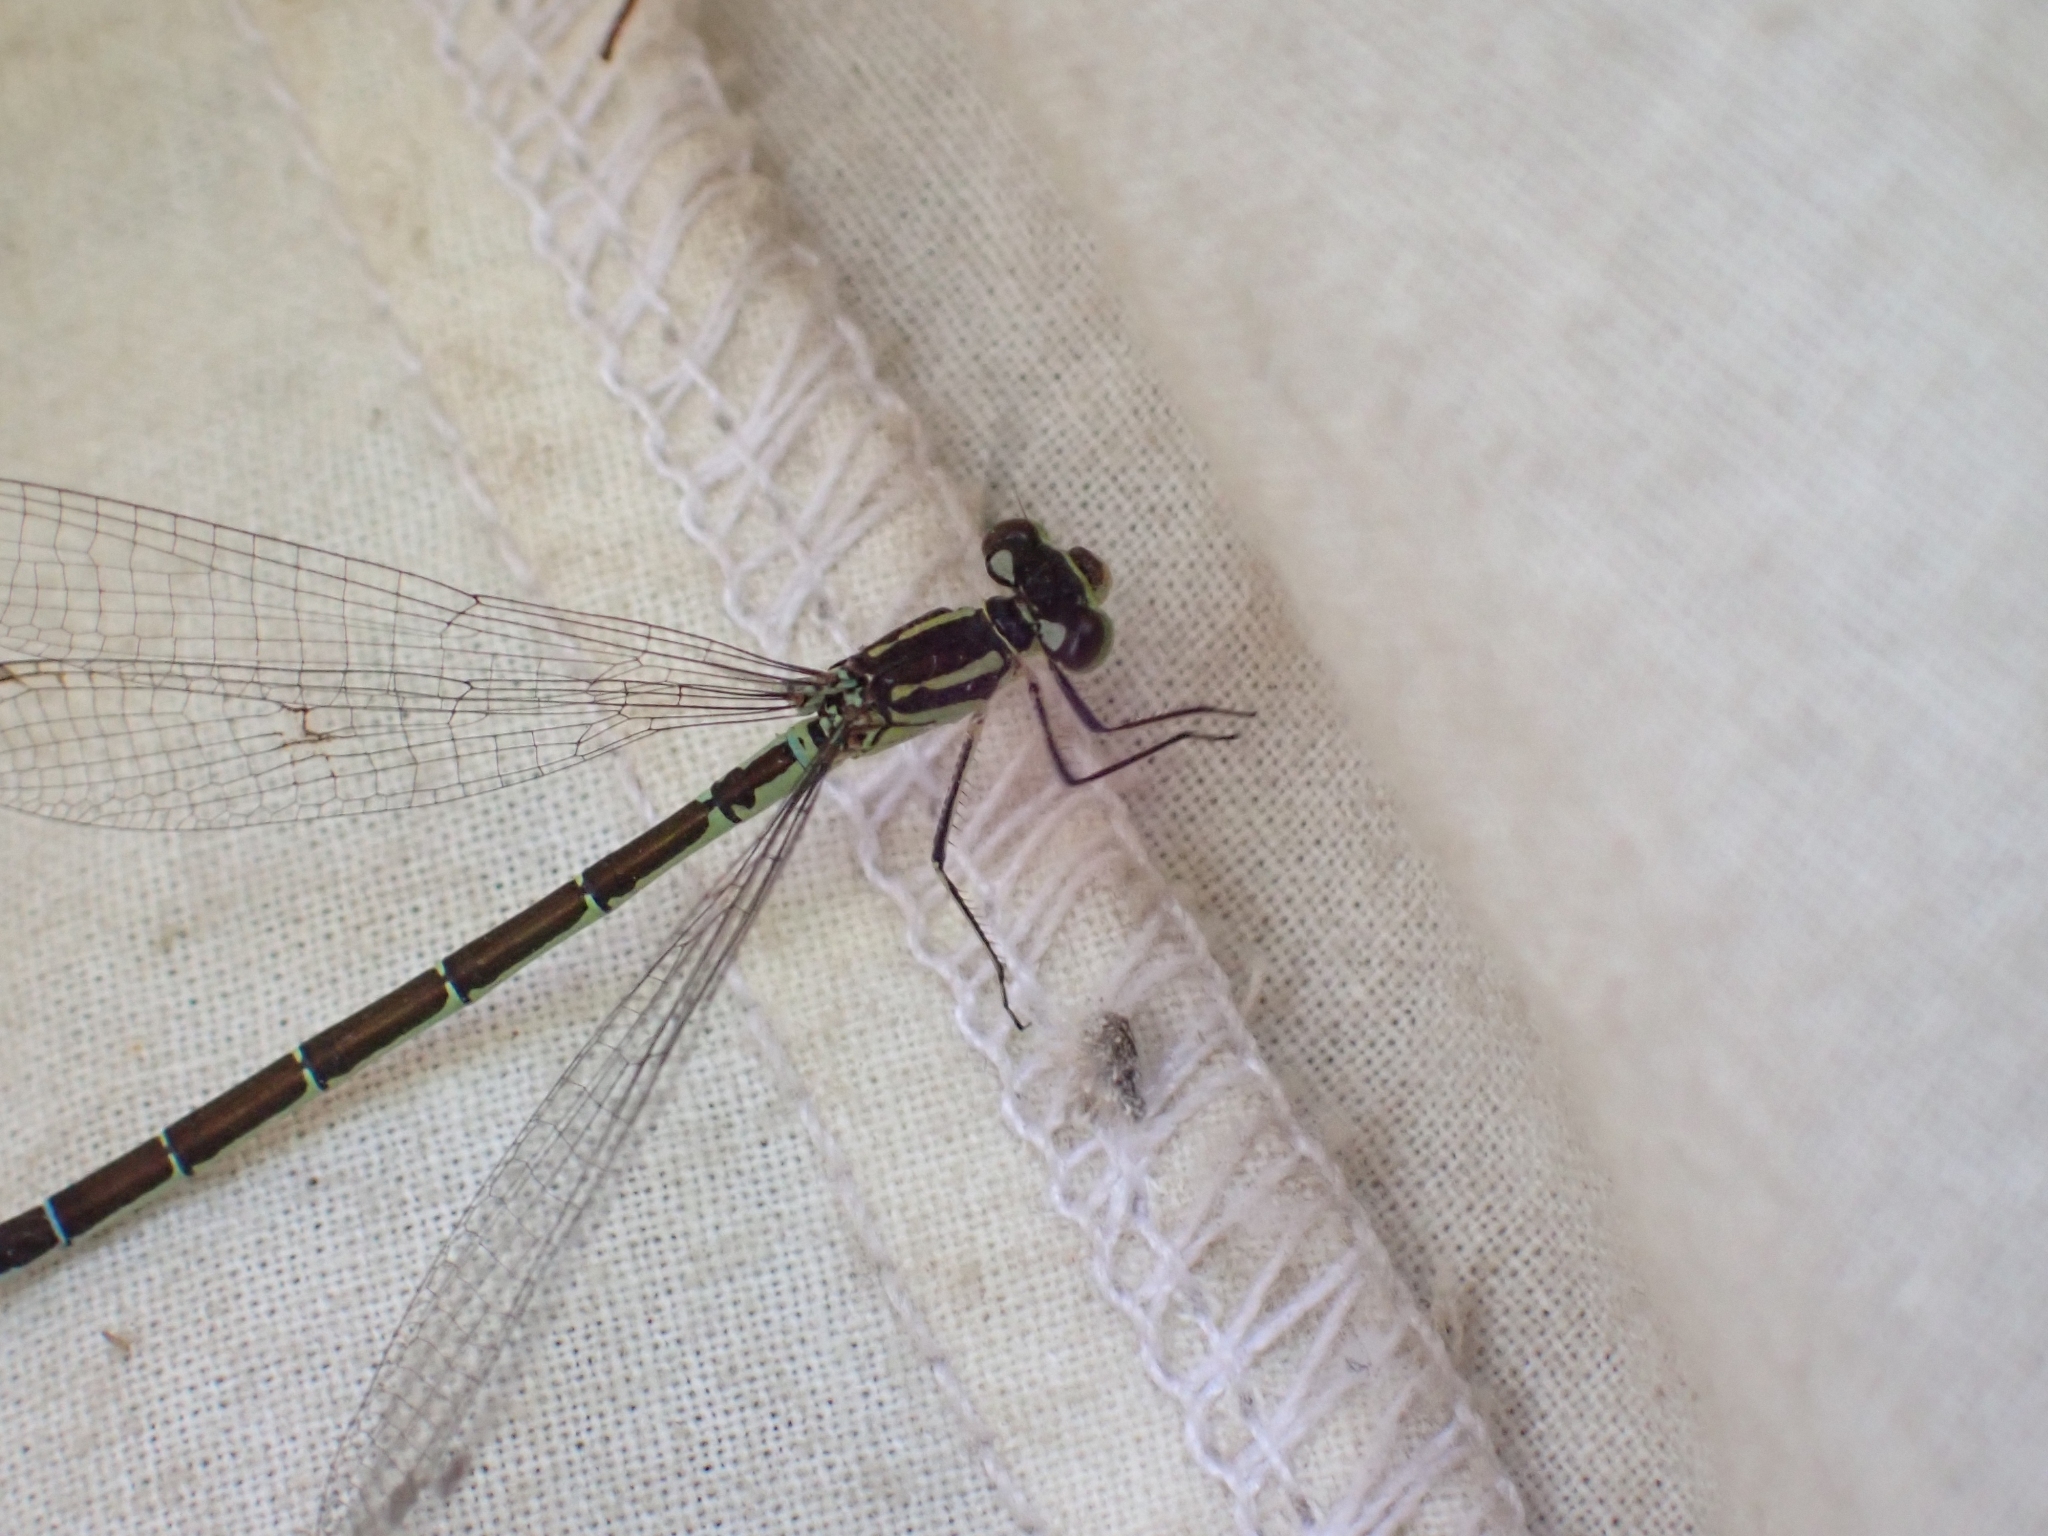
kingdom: Animalia
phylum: Arthropoda
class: Insecta
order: Odonata
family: Coenagrionidae
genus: Coenagrion
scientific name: Coenagrion resolutum
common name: Taiga bluet
